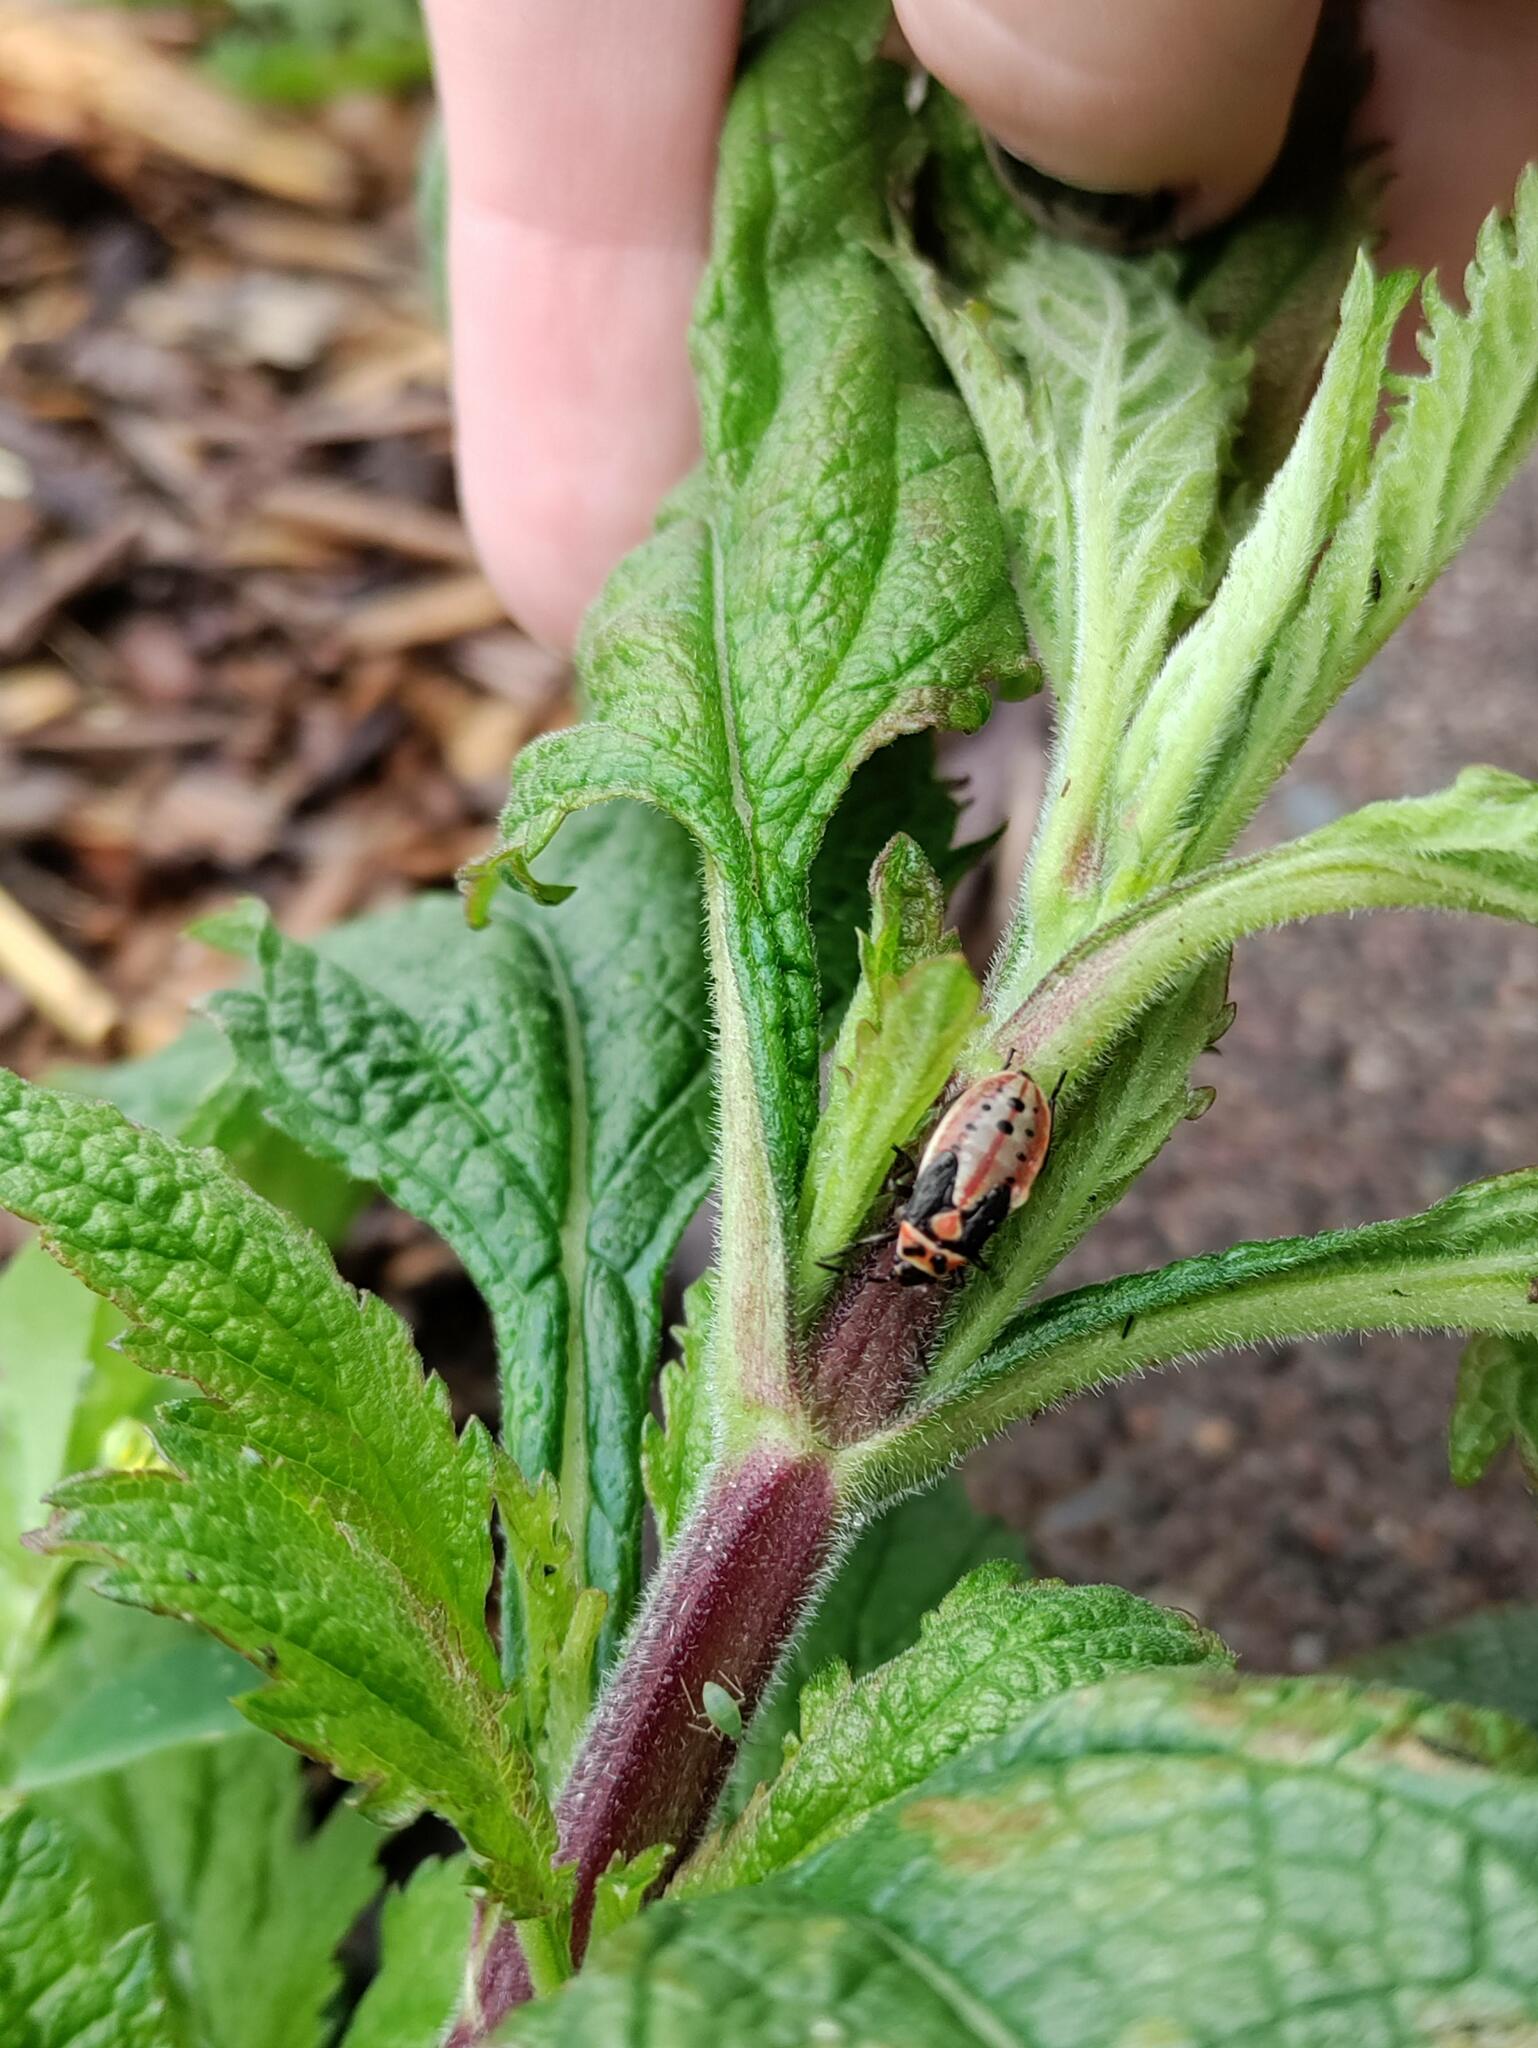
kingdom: Animalia
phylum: Arthropoda
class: Insecta
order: Hemiptera
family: Lygaeidae
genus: Lygaeus
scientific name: Lygaeus kalmii
